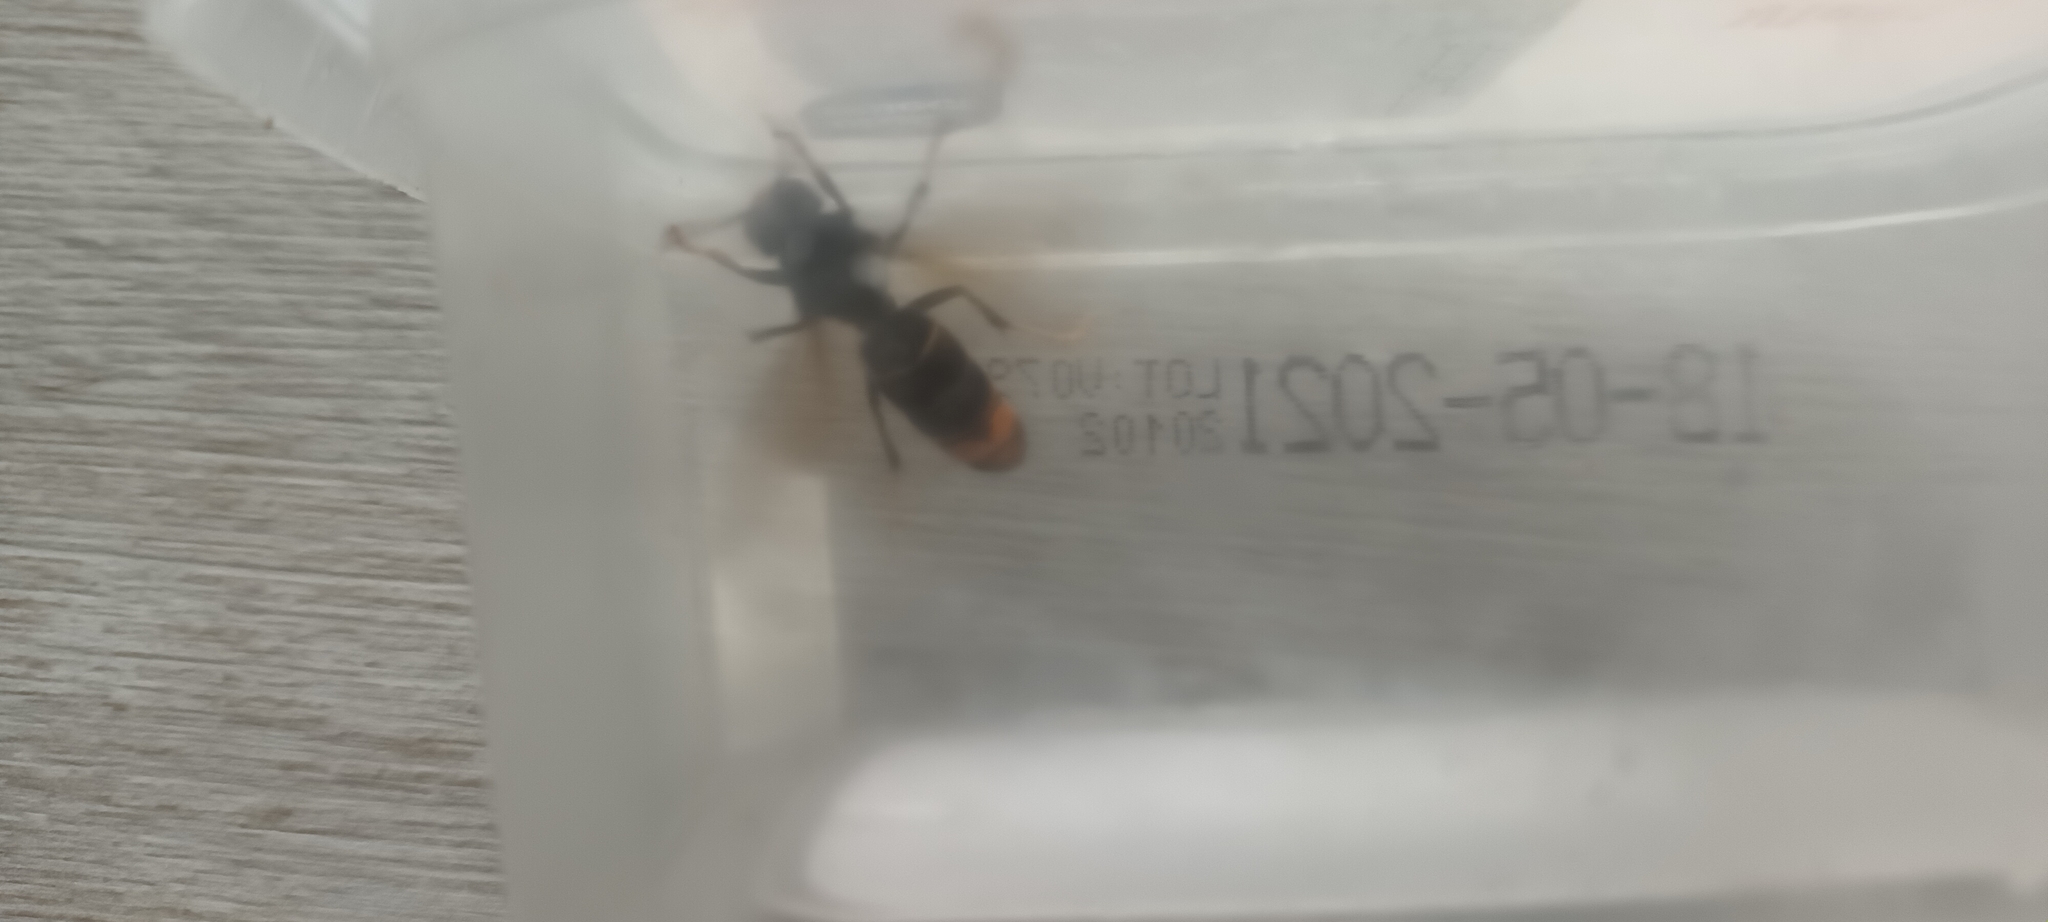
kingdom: Animalia
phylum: Arthropoda
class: Insecta
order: Hymenoptera
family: Vespidae
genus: Vespa
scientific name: Vespa velutina
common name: Asian hornet
